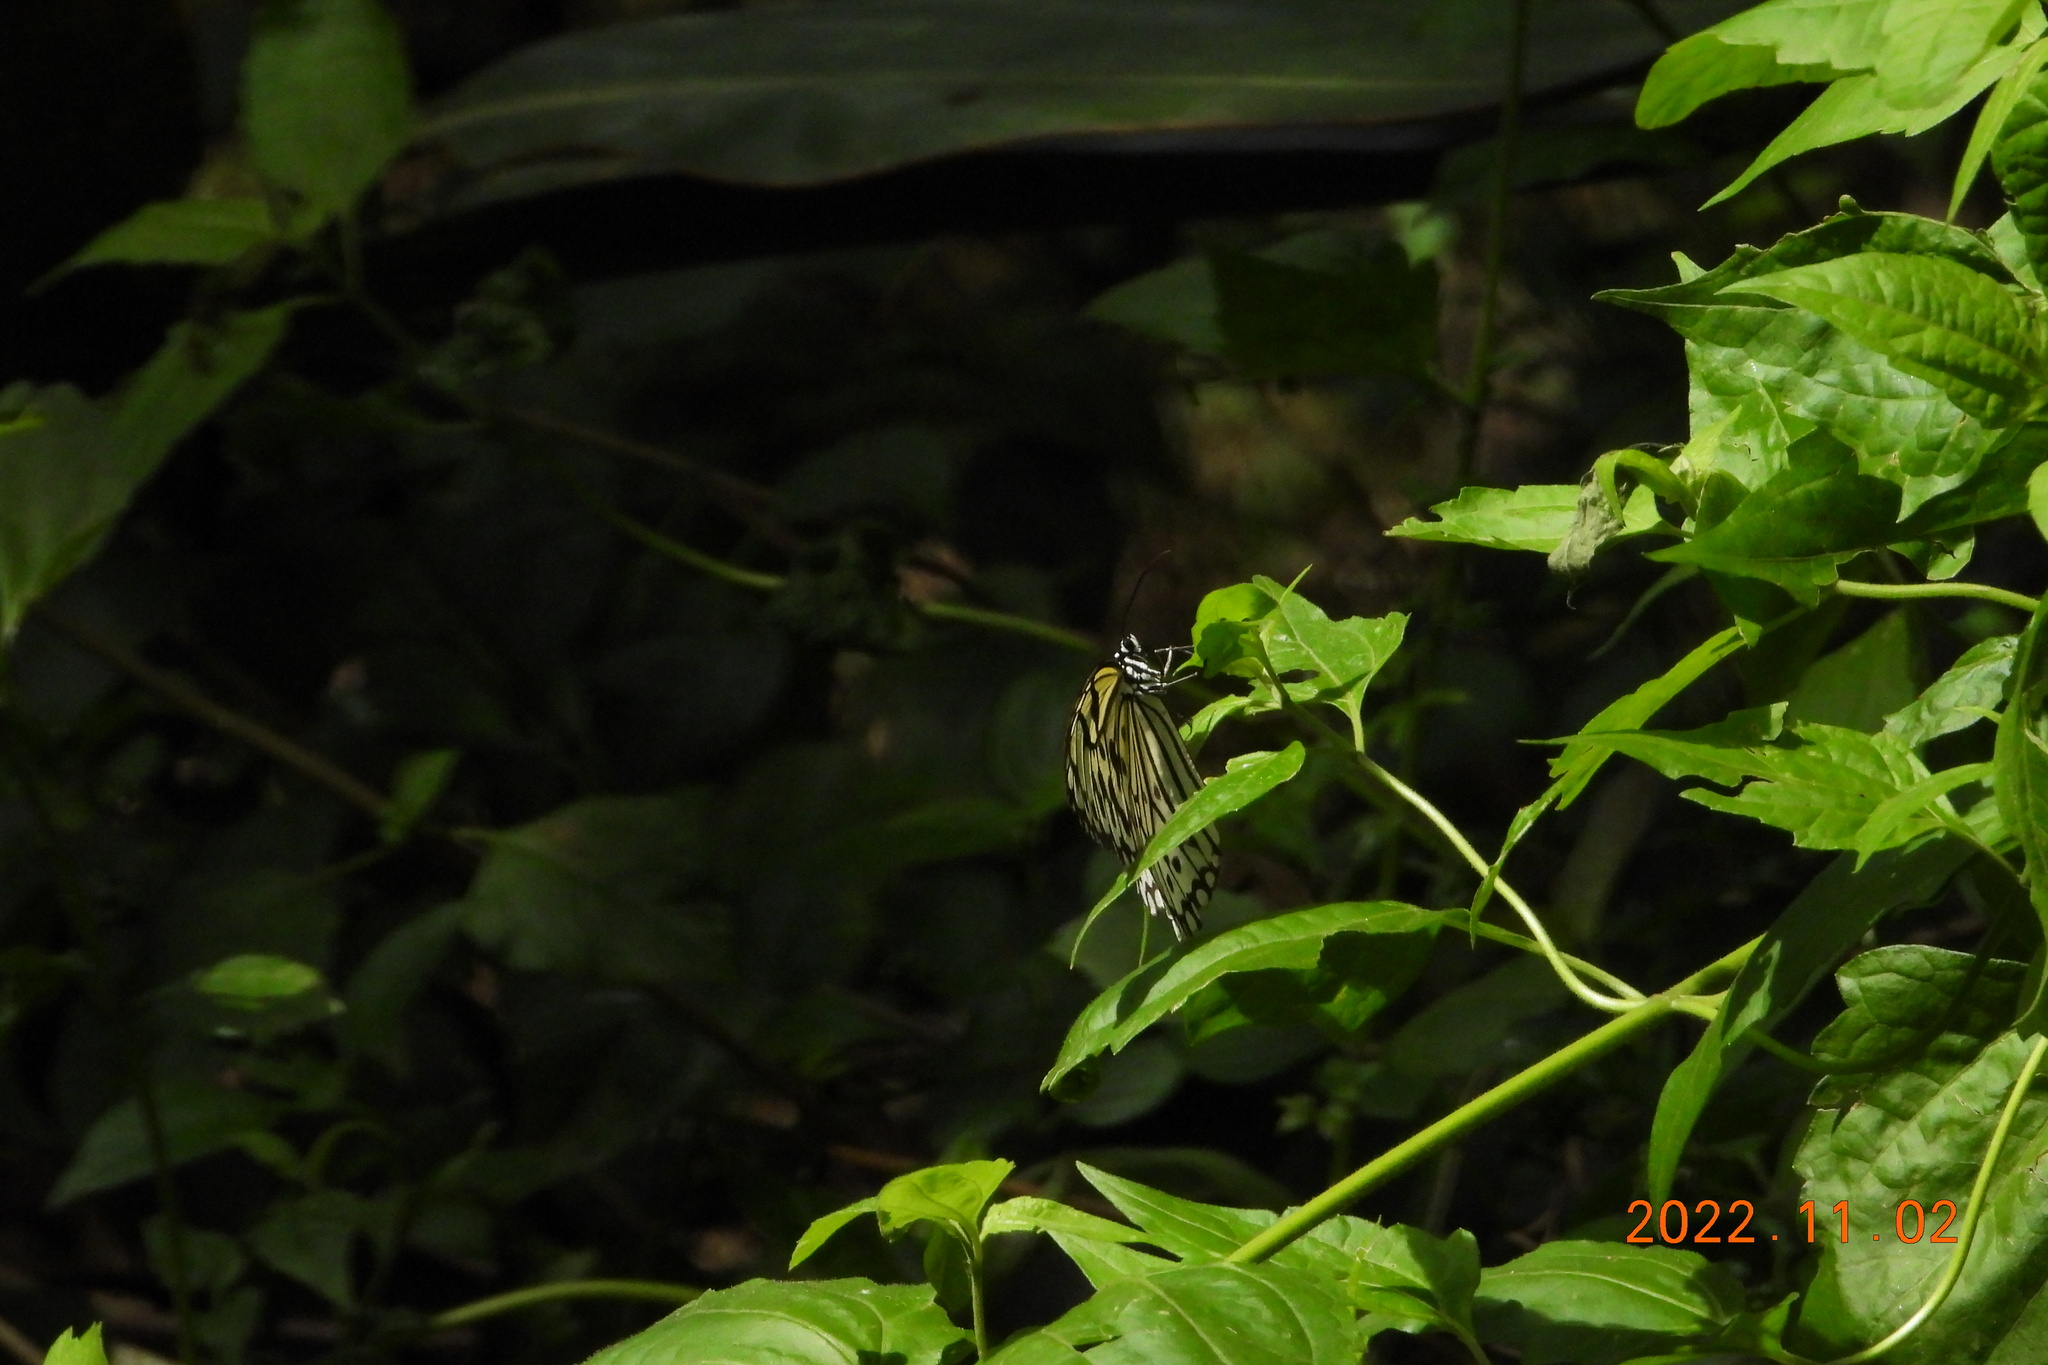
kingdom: Animalia
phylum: Arthropoda
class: Insecta
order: Lepidoptera
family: Nymphalidae
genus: Idea
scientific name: Idea leuconoe
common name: Rice paper butterfly
